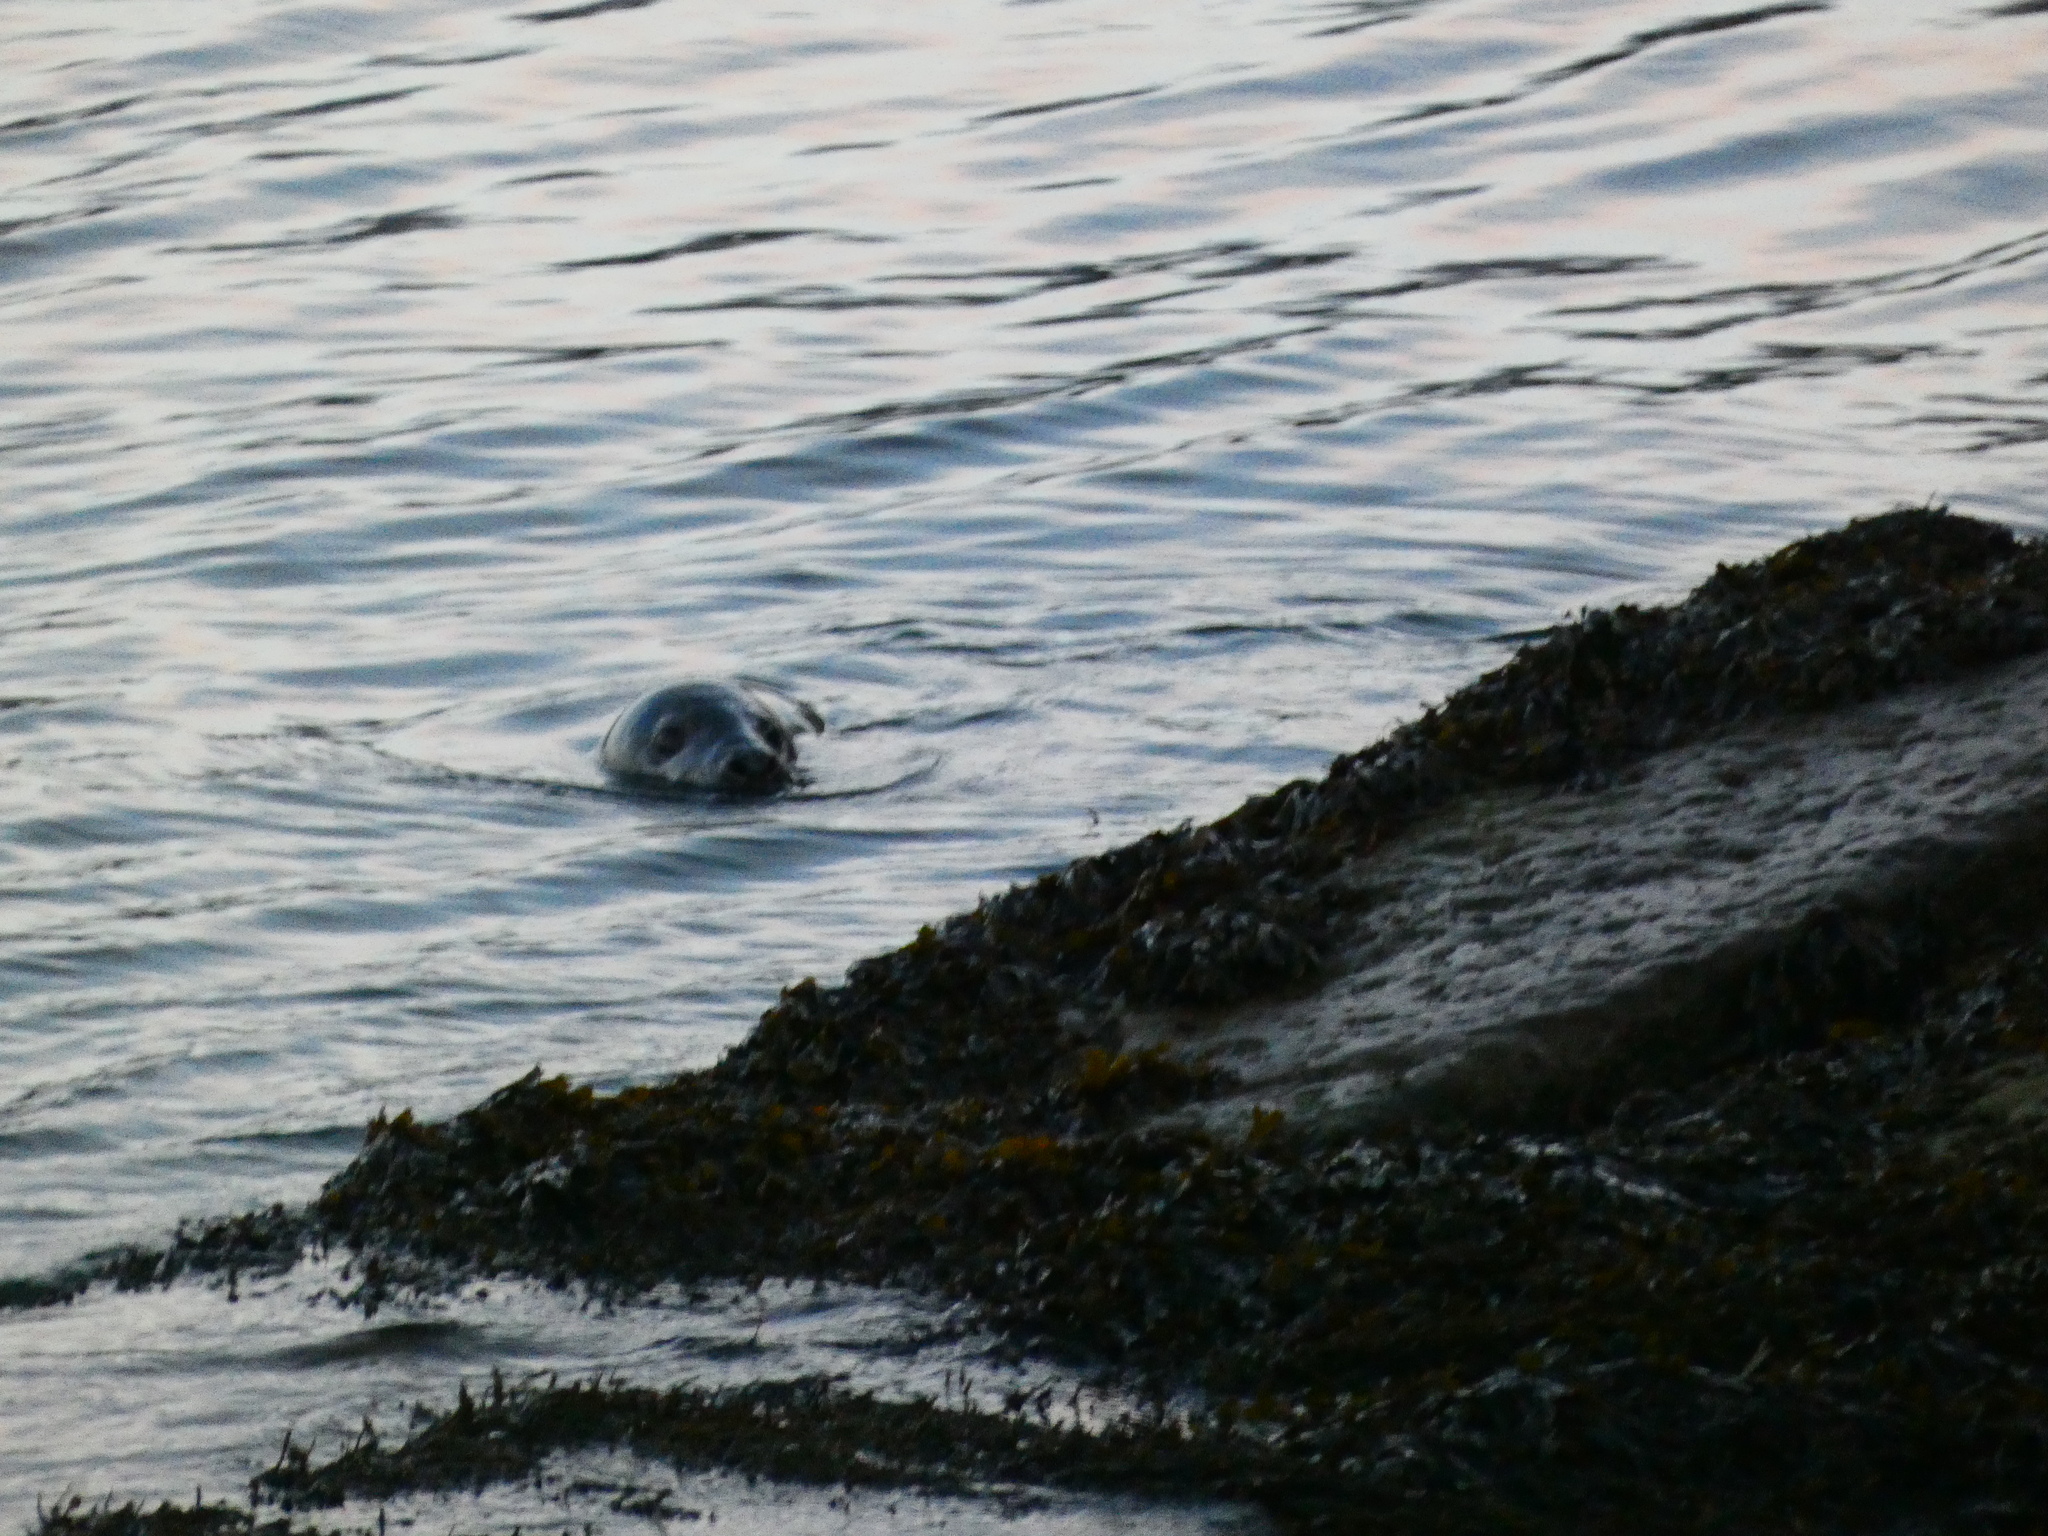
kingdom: Animalia
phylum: Chordata
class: Mammalia
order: Carnivora
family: Phocidae
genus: Halichoerus
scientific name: Halichoerus grypus
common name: Grey seal
